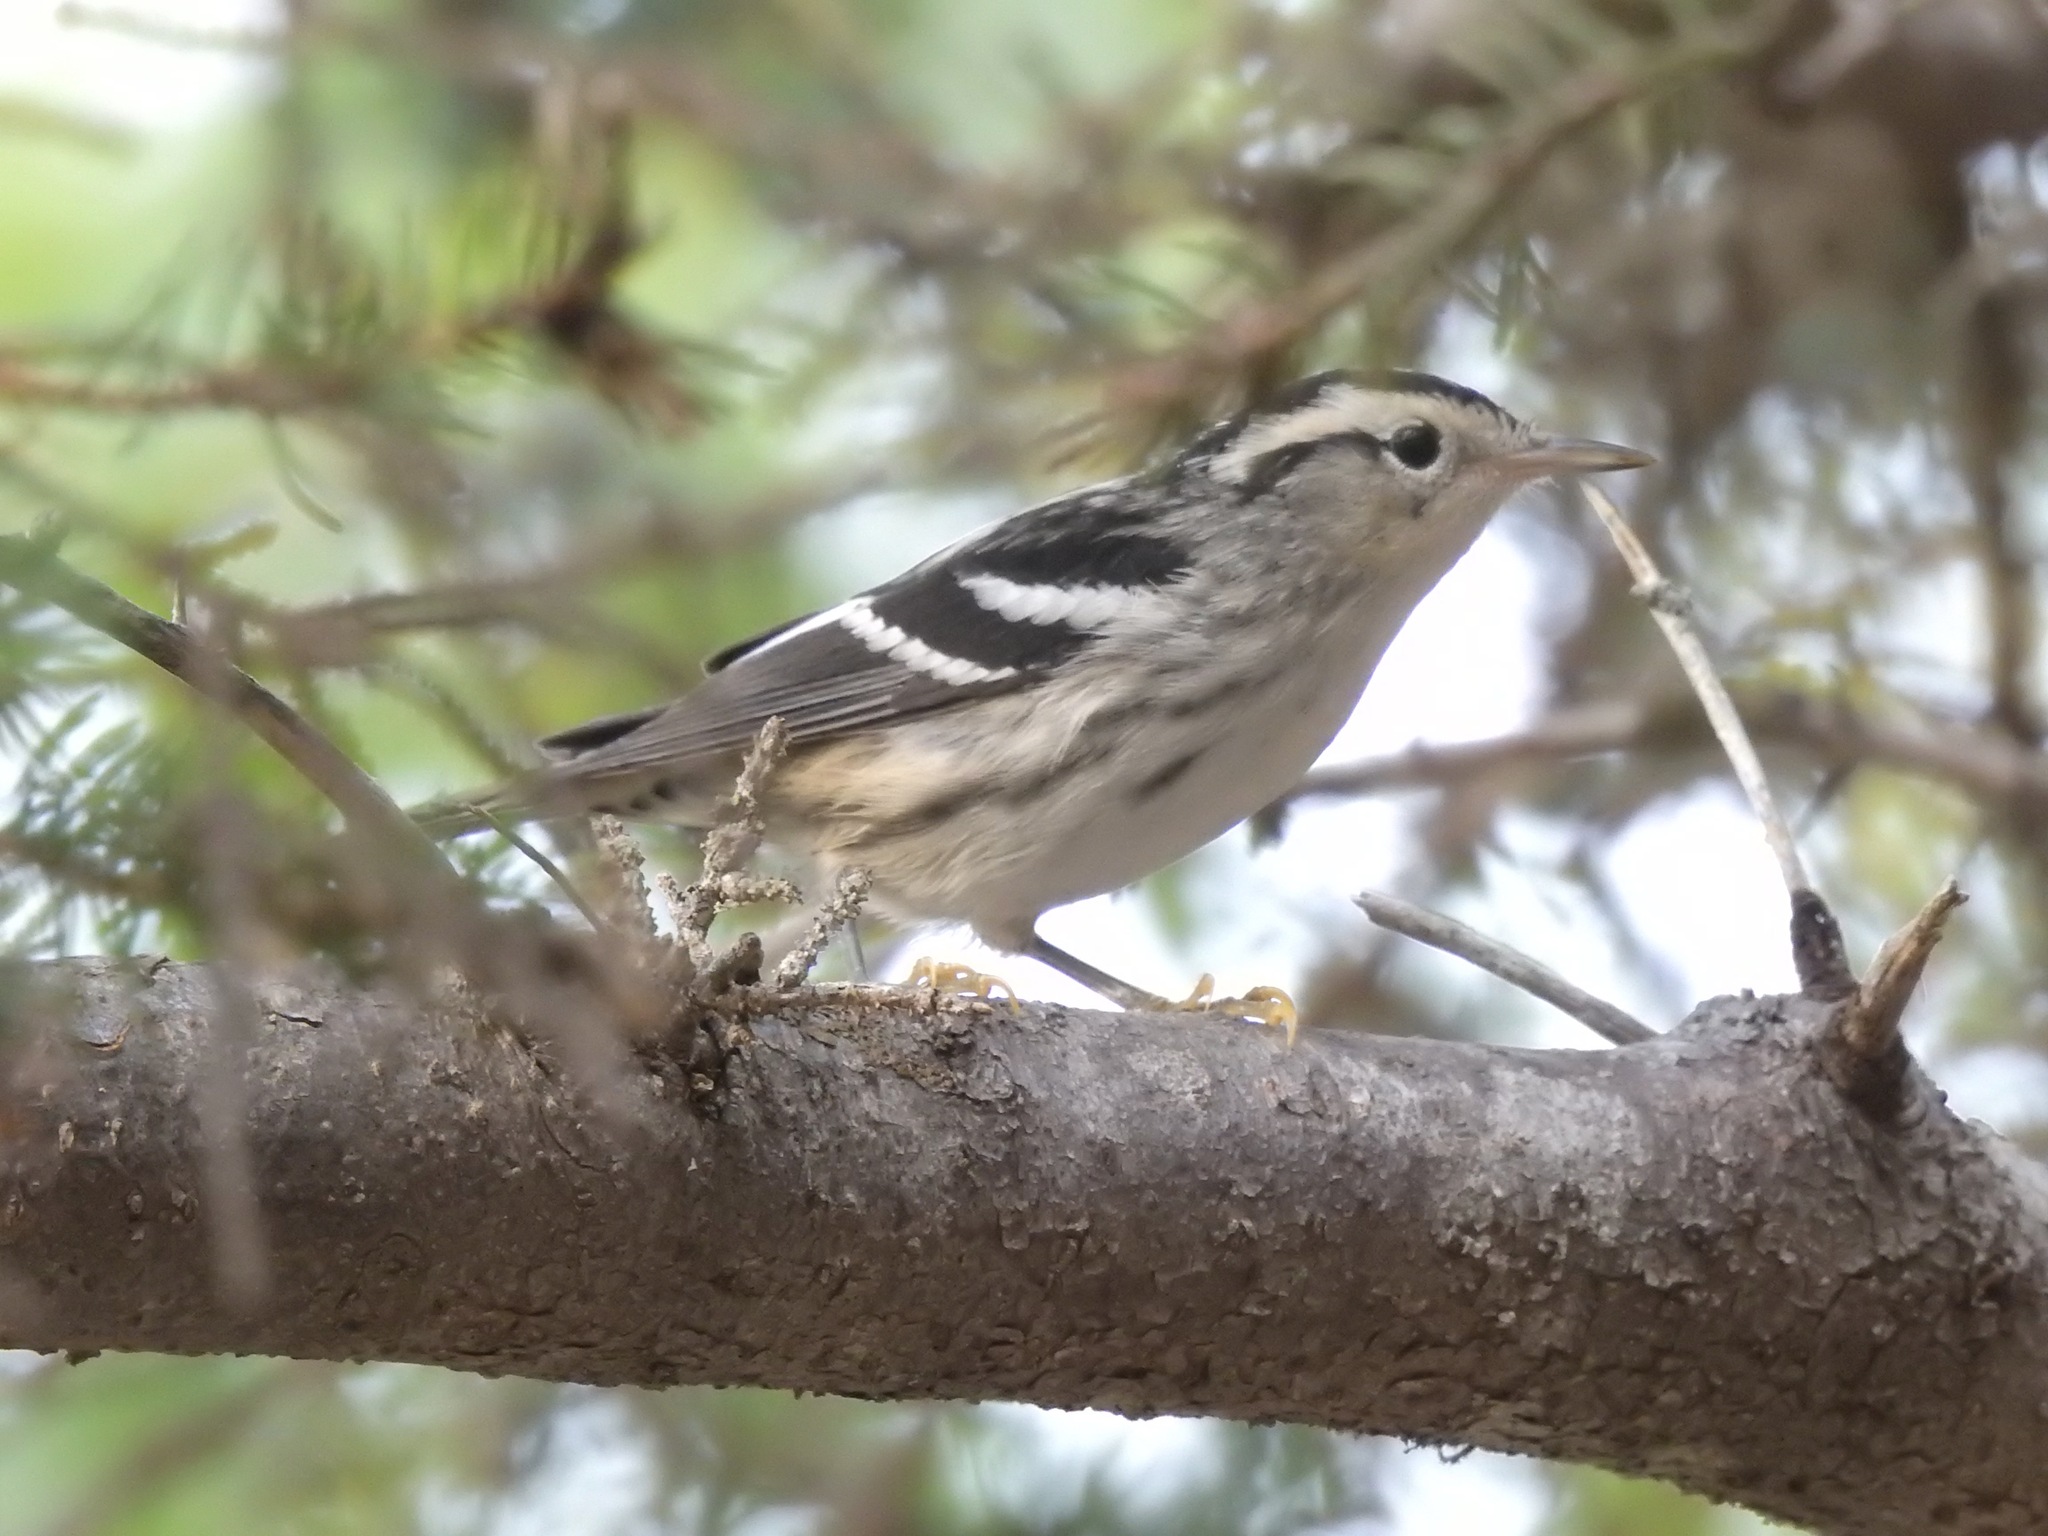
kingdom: Animalia
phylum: Chordata
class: Aves
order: Passeriformes
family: Parulidae
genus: Mniotilta
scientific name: Mniotilta varia
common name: Black-and-white warbler
